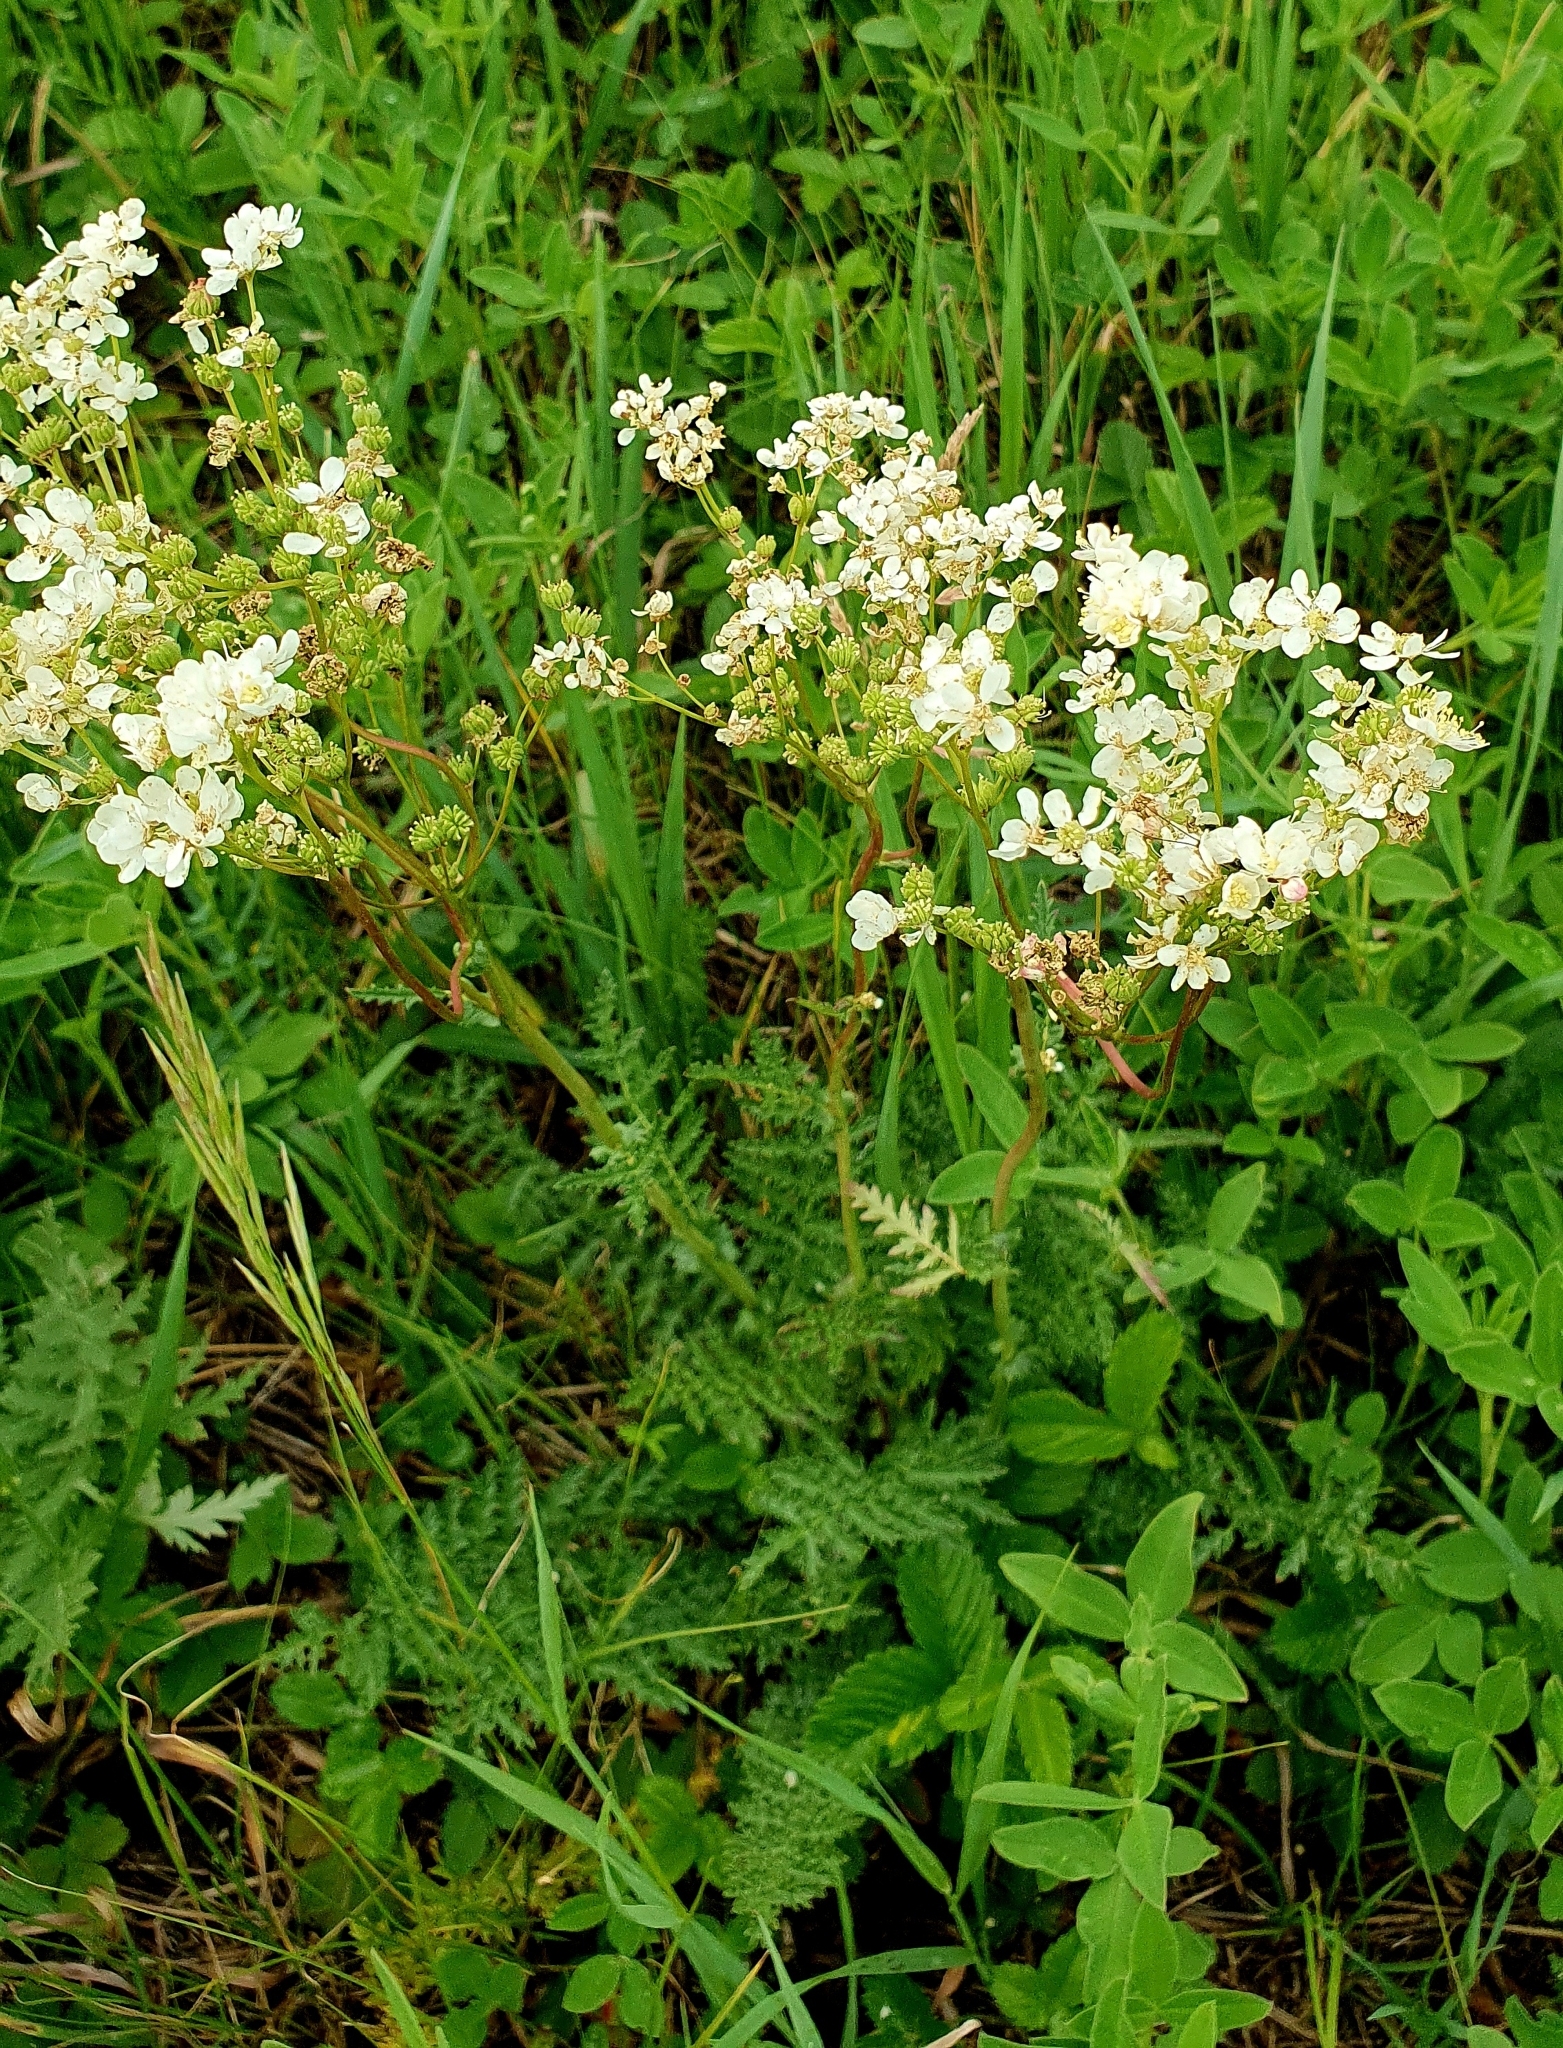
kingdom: Plantae
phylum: Tracheophyta
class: Magnoliopsida
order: Rosales
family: Rosaceae
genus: Filipendula
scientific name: Filipendula vulgaris
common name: Dropwort
